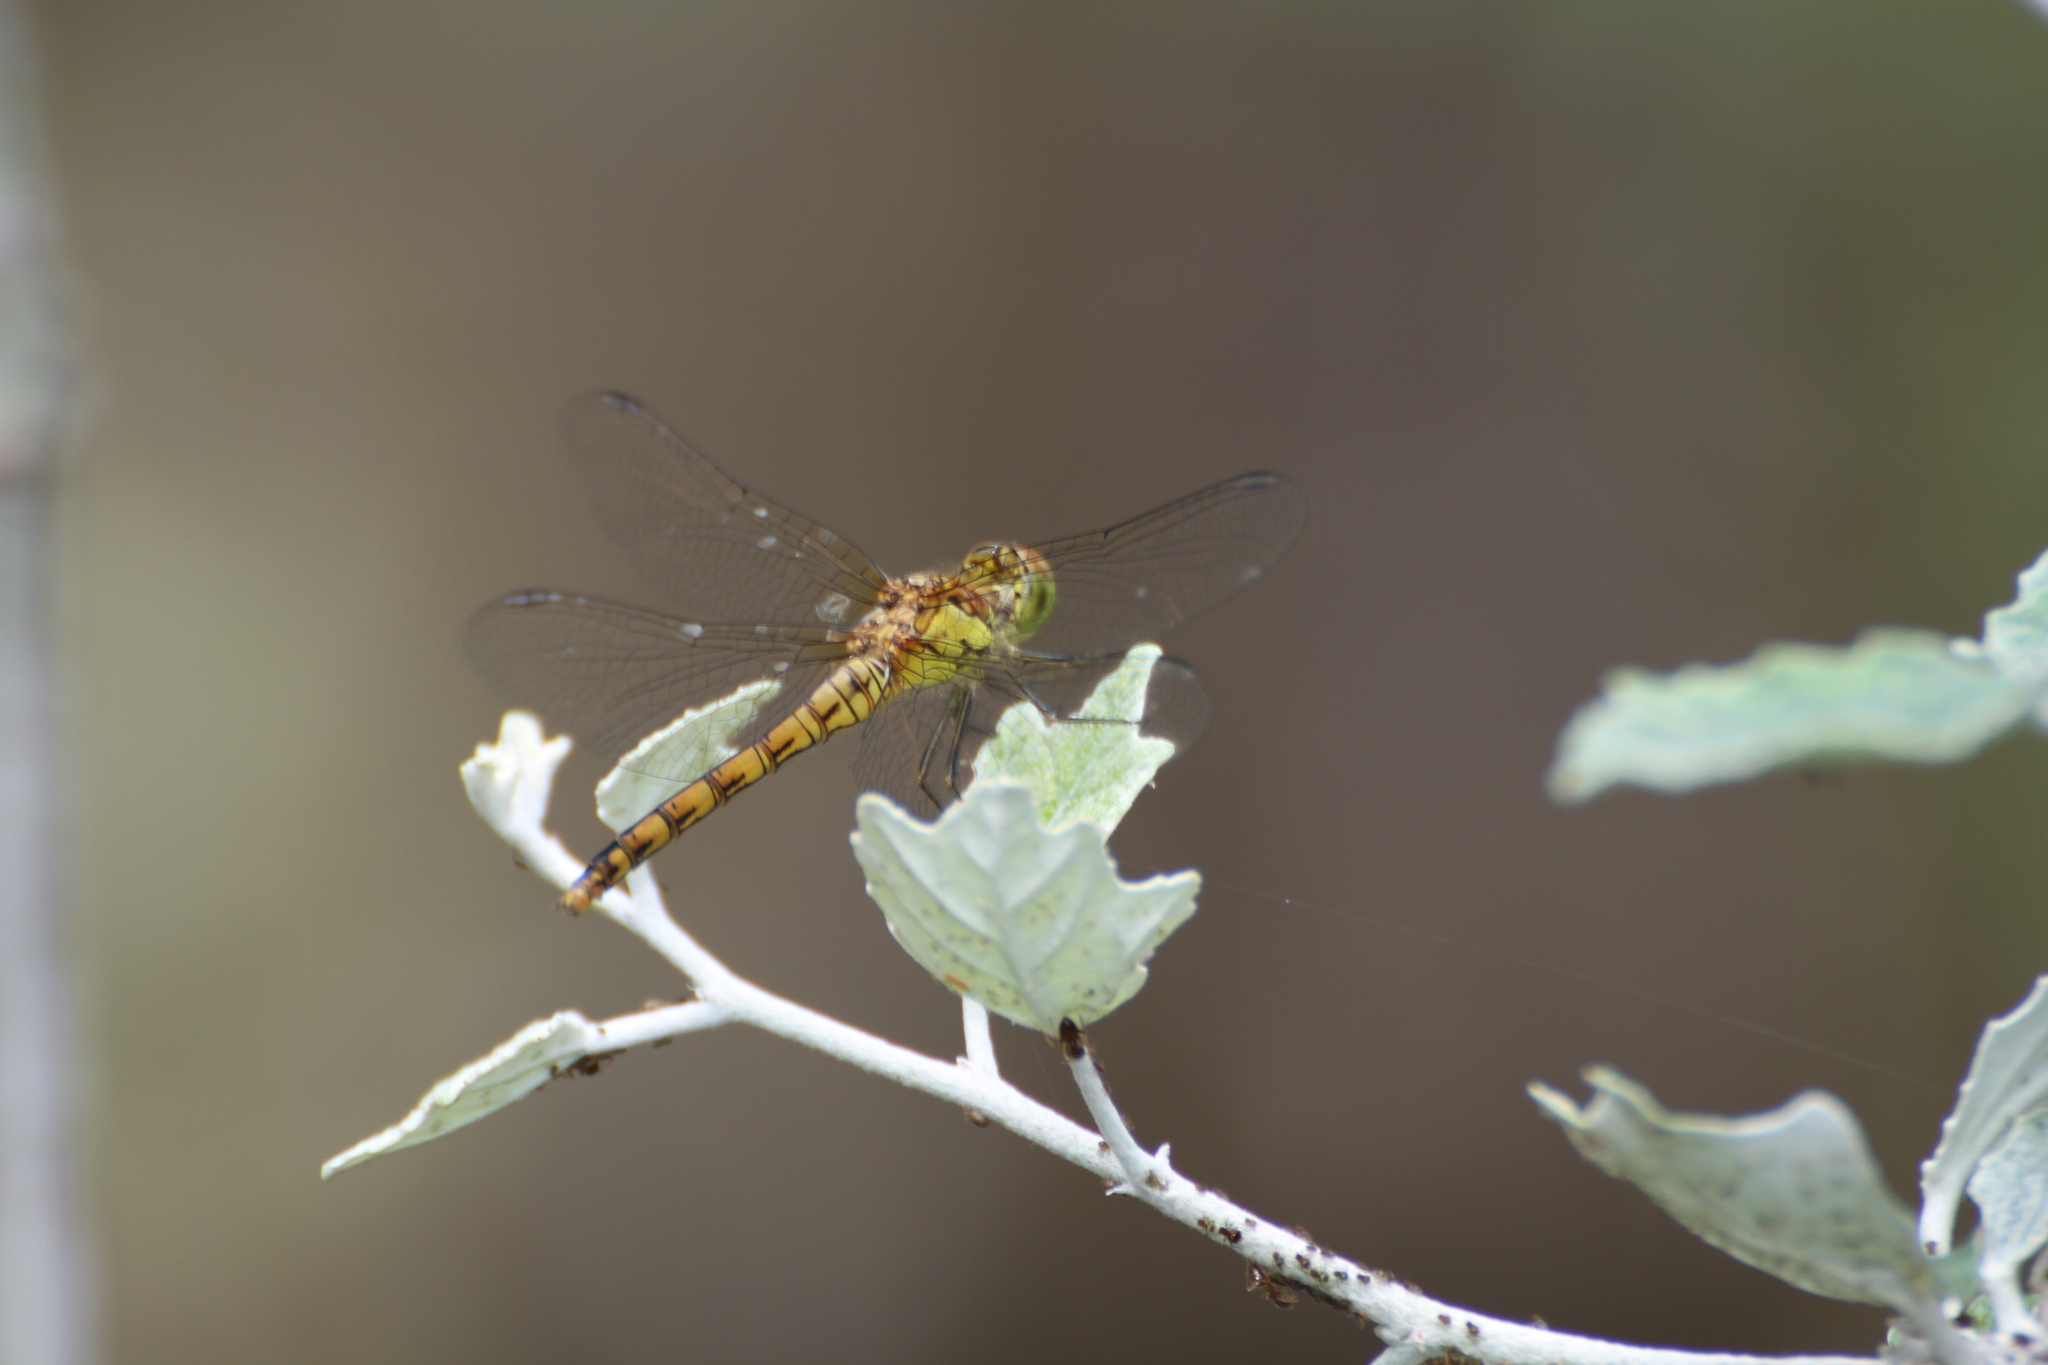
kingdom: Animalia
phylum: Arthropoda
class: Insecta
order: Odonata
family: Libellulidae
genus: Sympetrum
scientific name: Sympetrum striolatum
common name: Common darter
